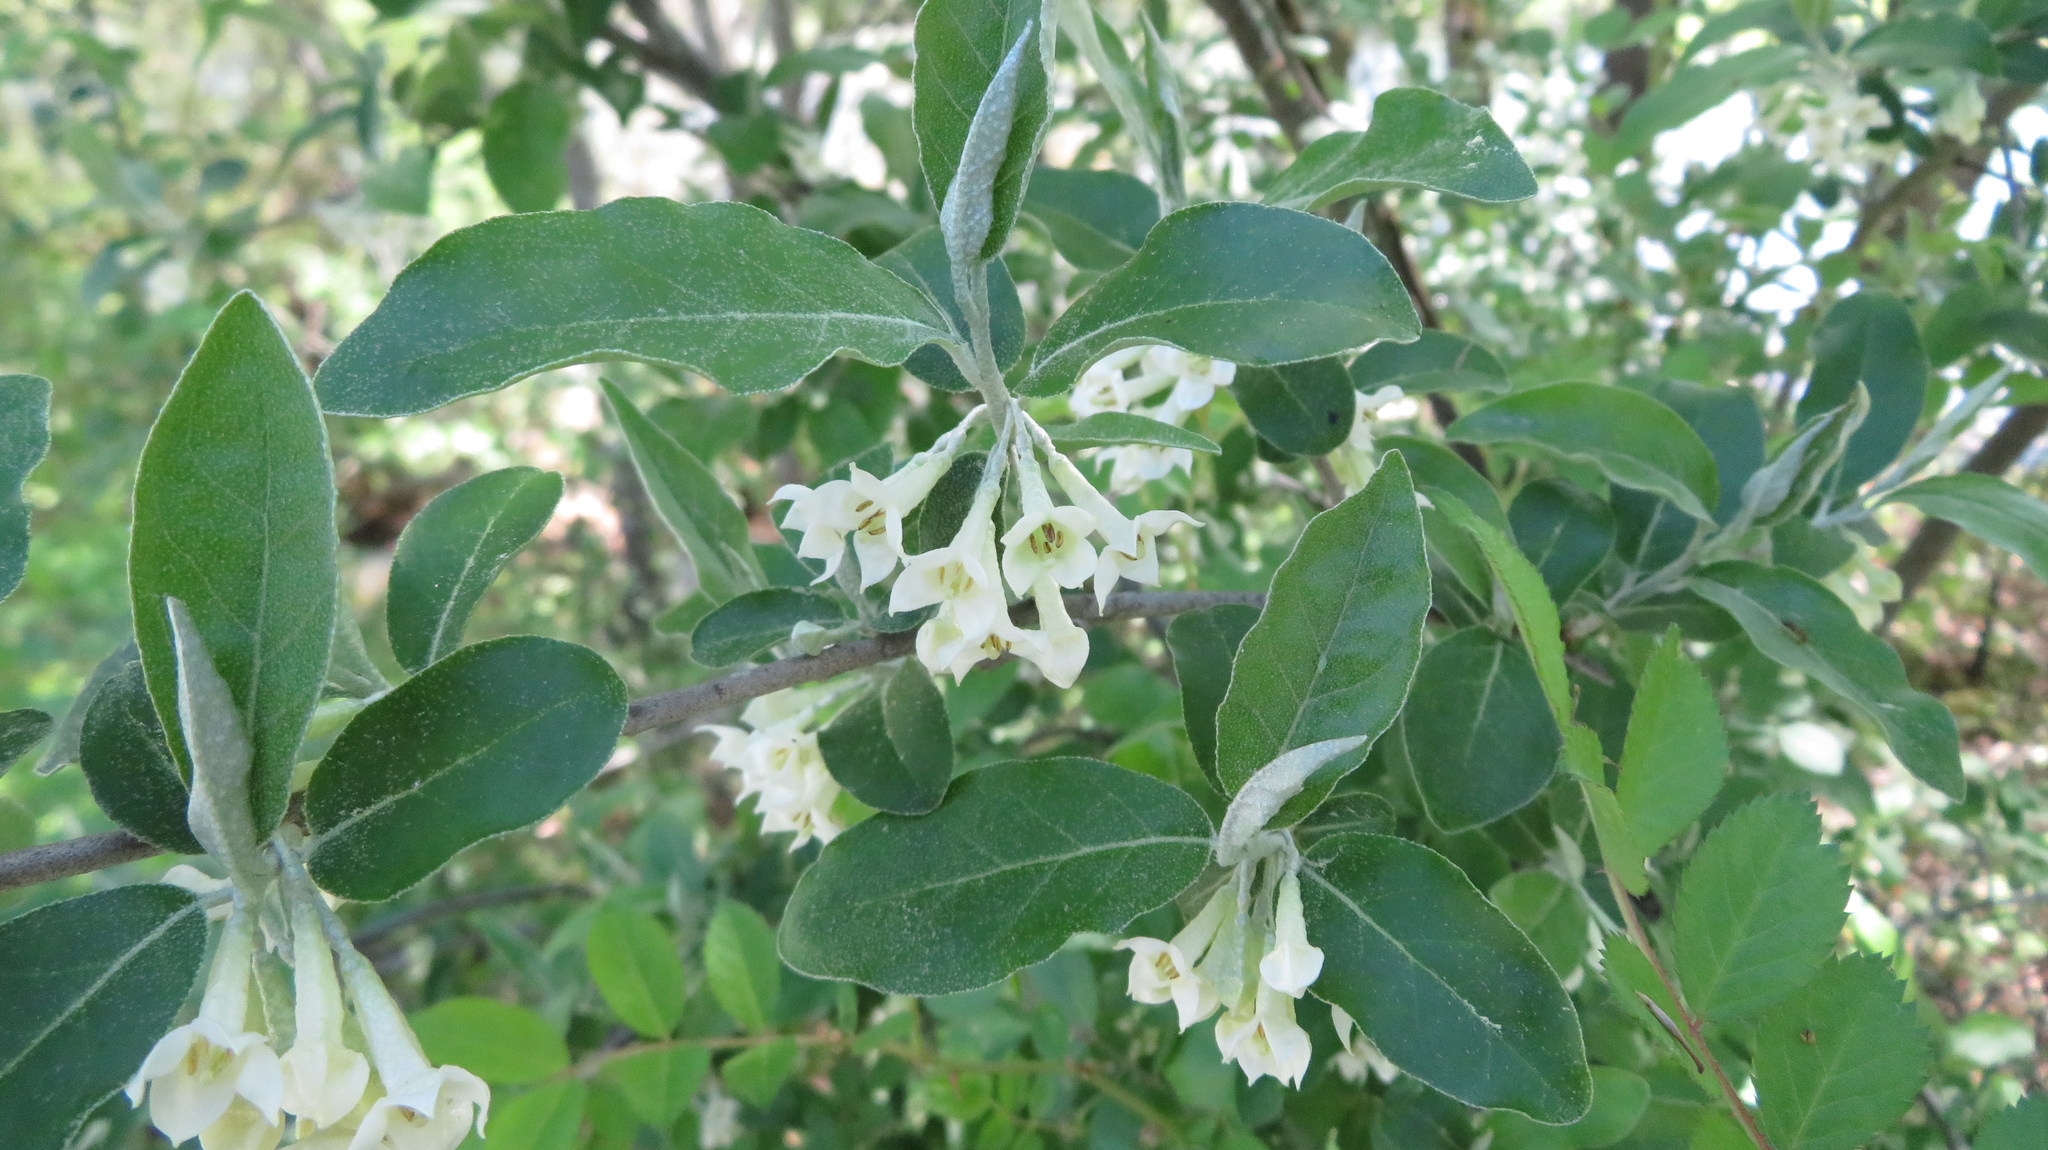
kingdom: Plantae
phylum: Tracheophyta
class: Magnoliopsida
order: Rosales
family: Elaeagnaceae
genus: Elaeagnus
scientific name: Elaeagnus umbellata
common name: Autumn olive
